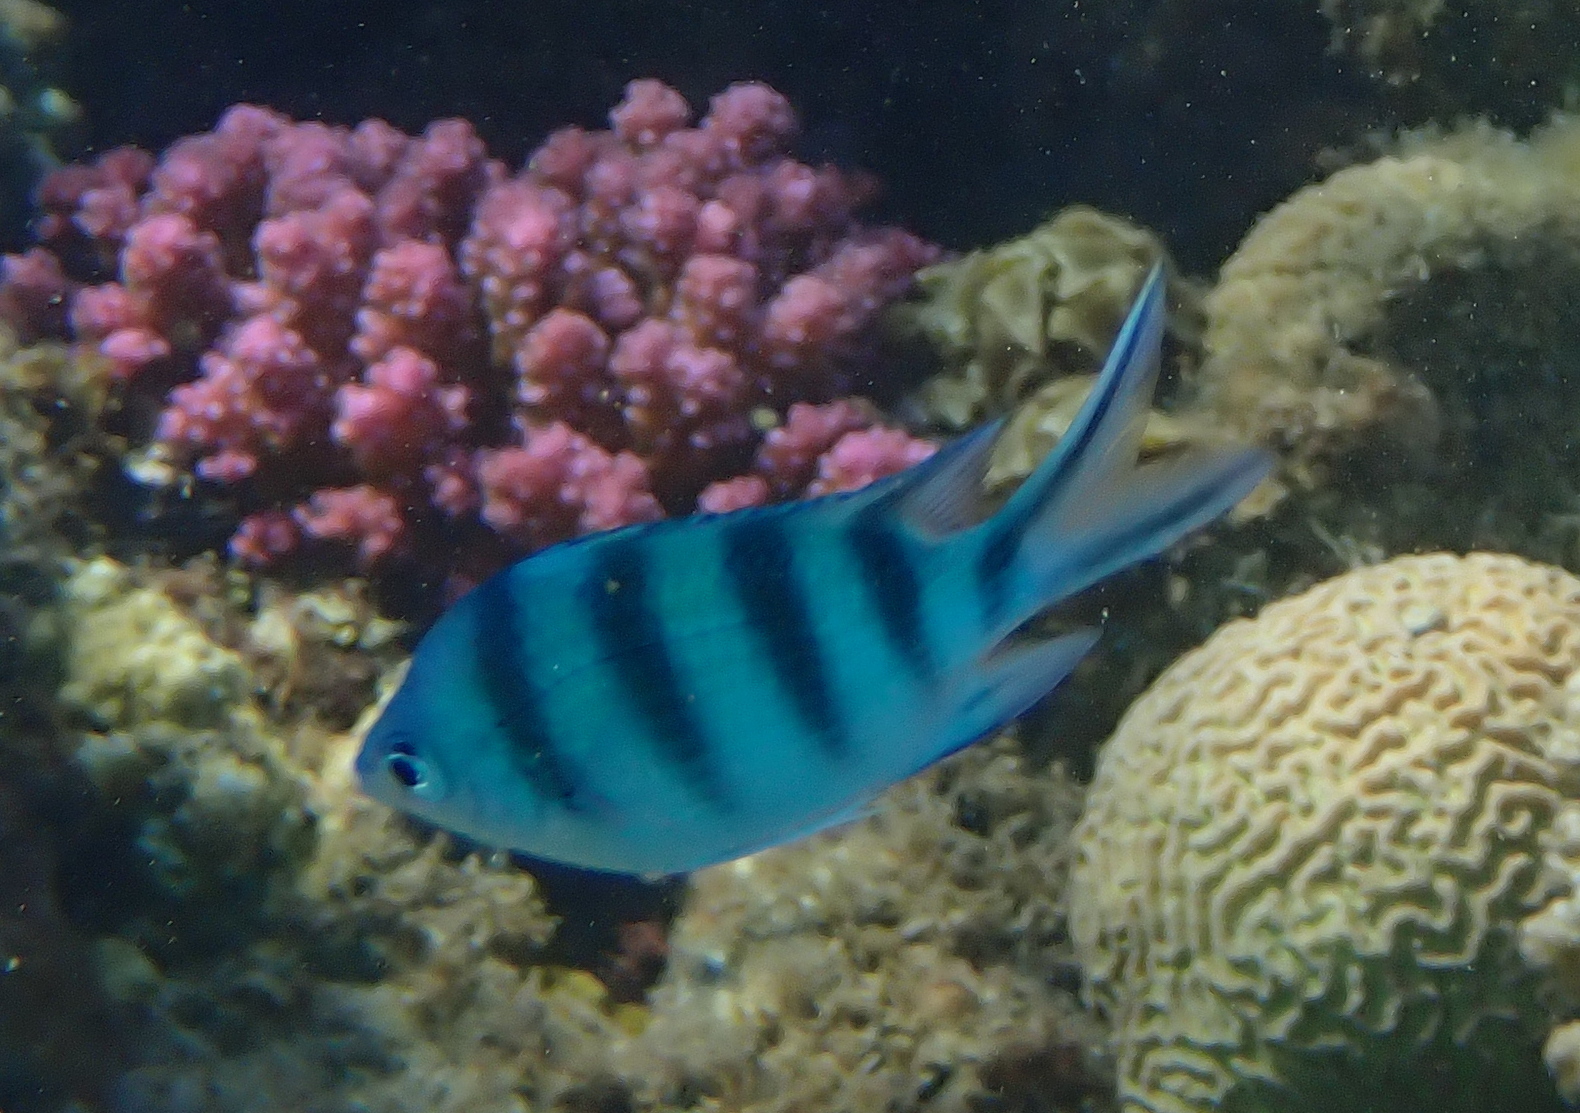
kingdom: Animalia
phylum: Chordata
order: Perciformes
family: Pomacentridae
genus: Abudefduf
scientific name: Abudefduf sexfasciatus
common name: Scissortail sergeant
